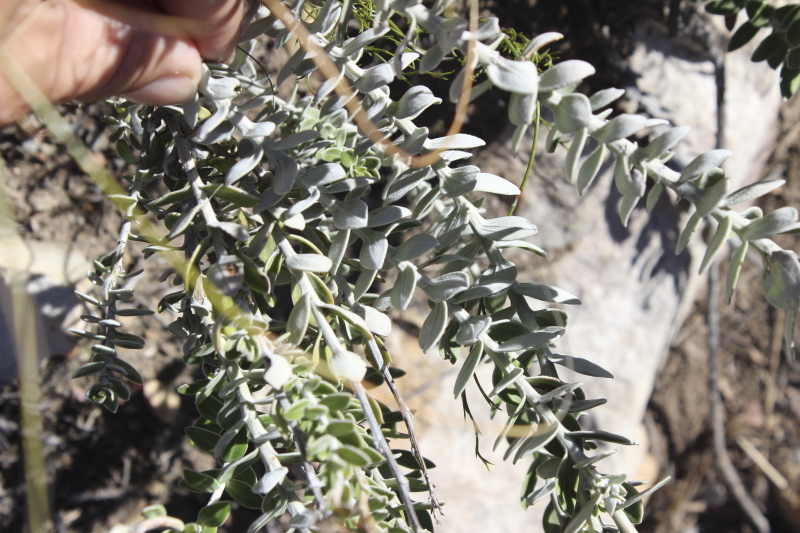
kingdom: Plantae
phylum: Tracheophyta
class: Magnoliopsida
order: Asterales
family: Asteraceae
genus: Senecio
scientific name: Senecio pauciflosculosus
